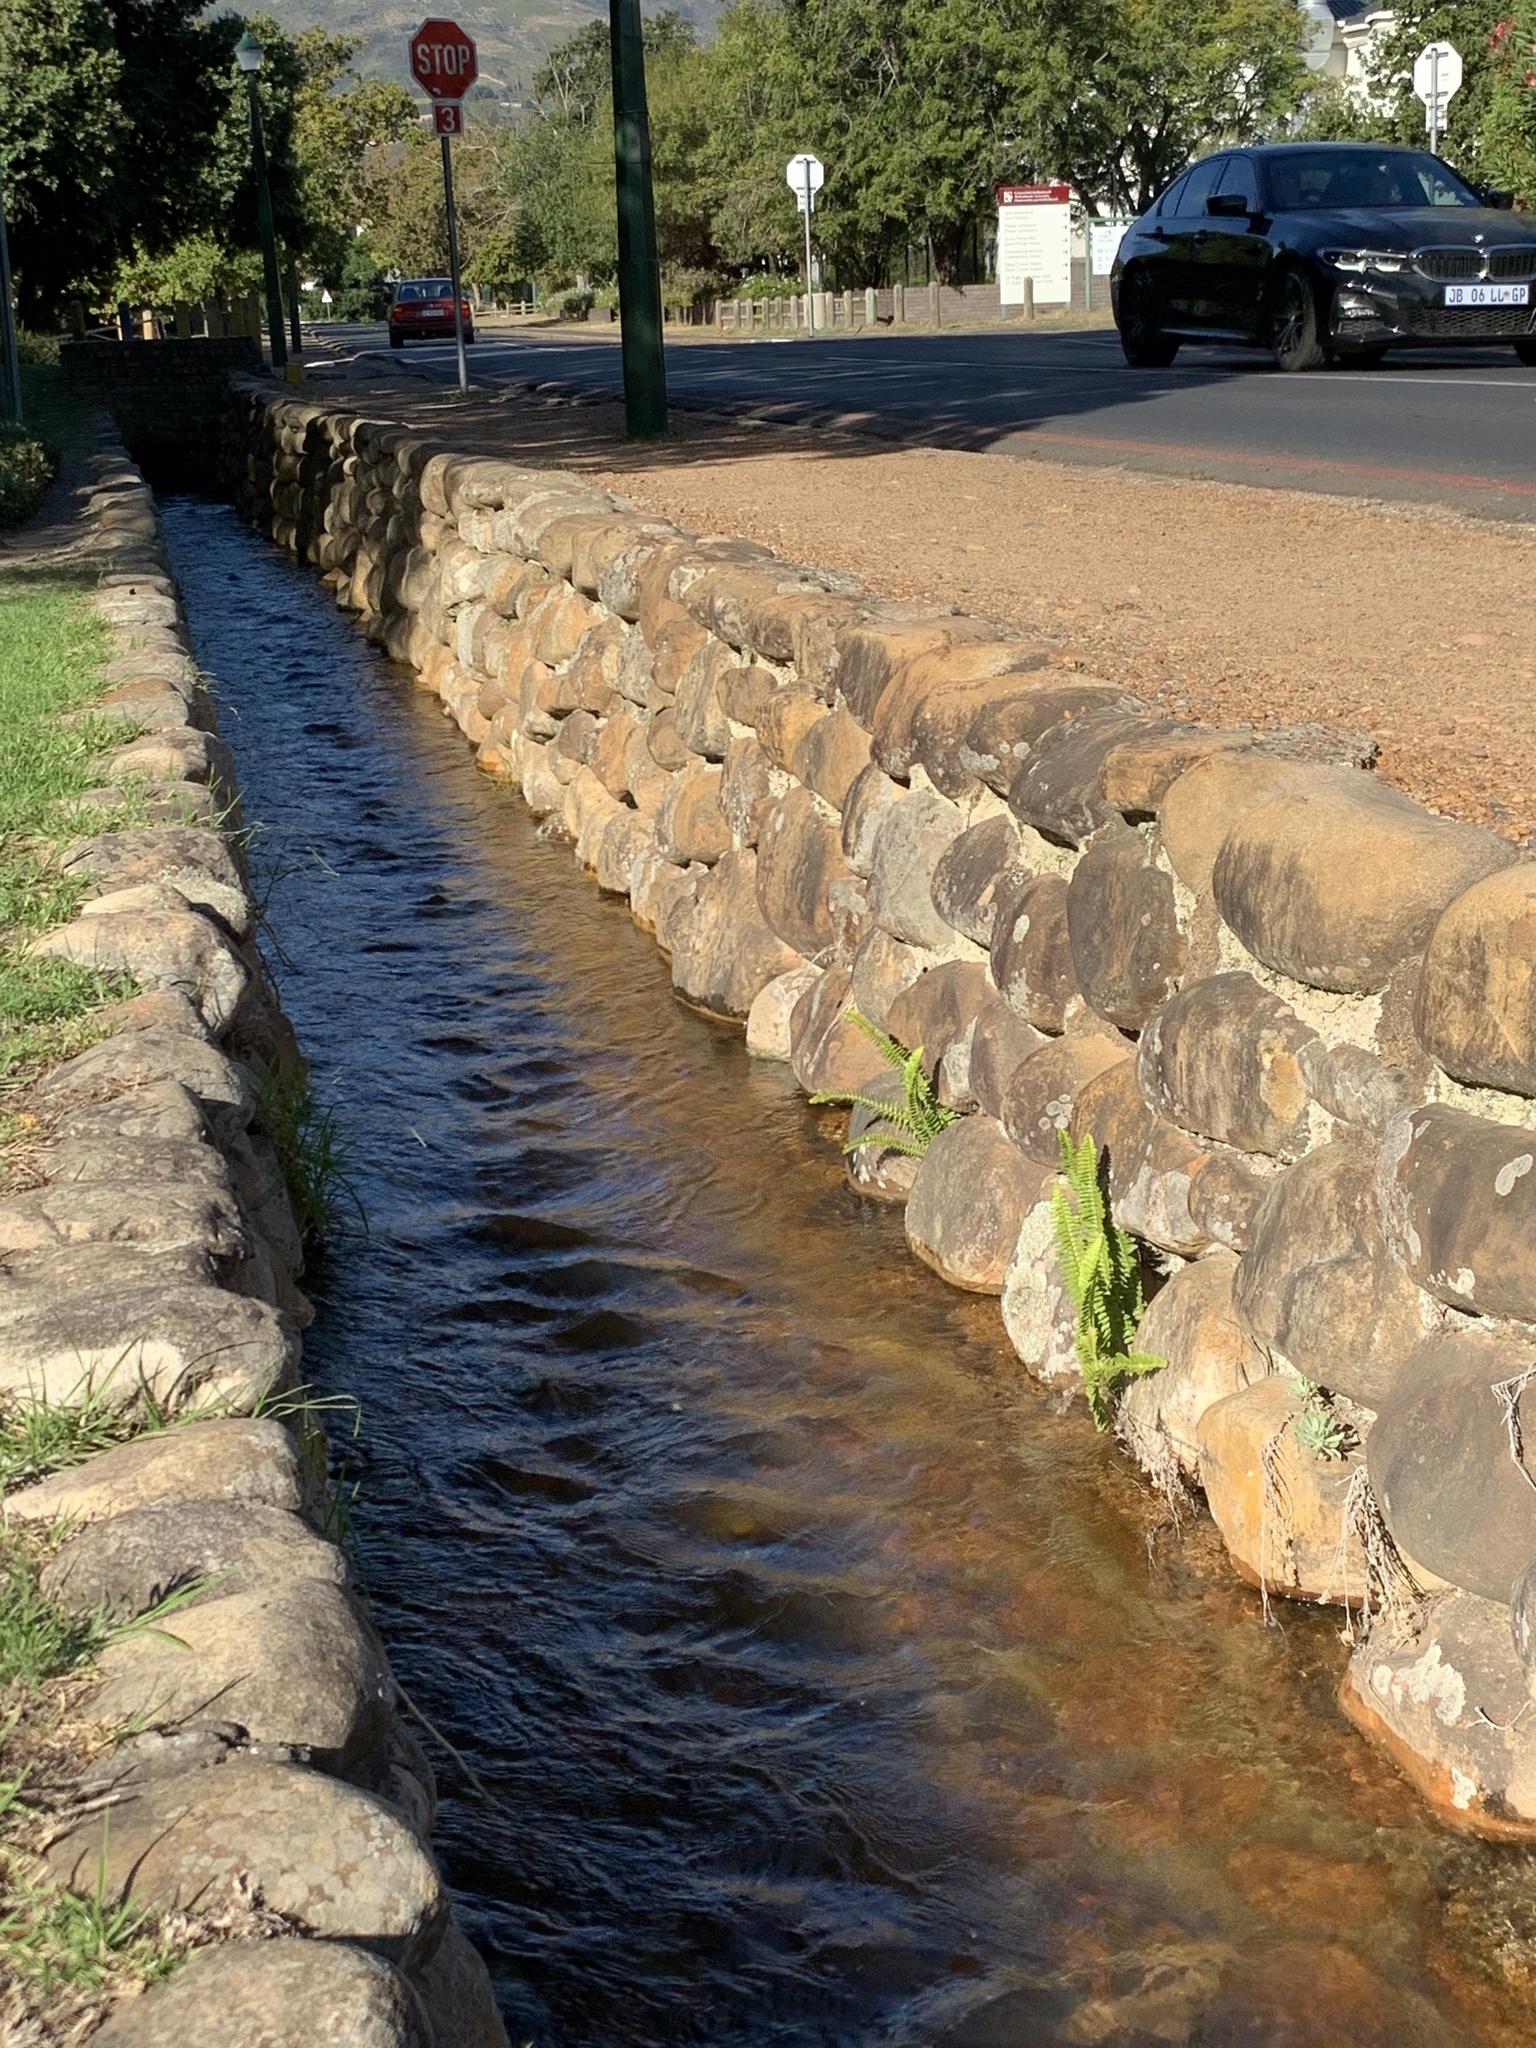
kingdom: Plantae
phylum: Tracheophyta
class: Polypodiopsida
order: Polypodiales
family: Nephrolepidaceae
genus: Nephrolepis
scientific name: Nephrolepis cordifolia
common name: Narrow swordfern
